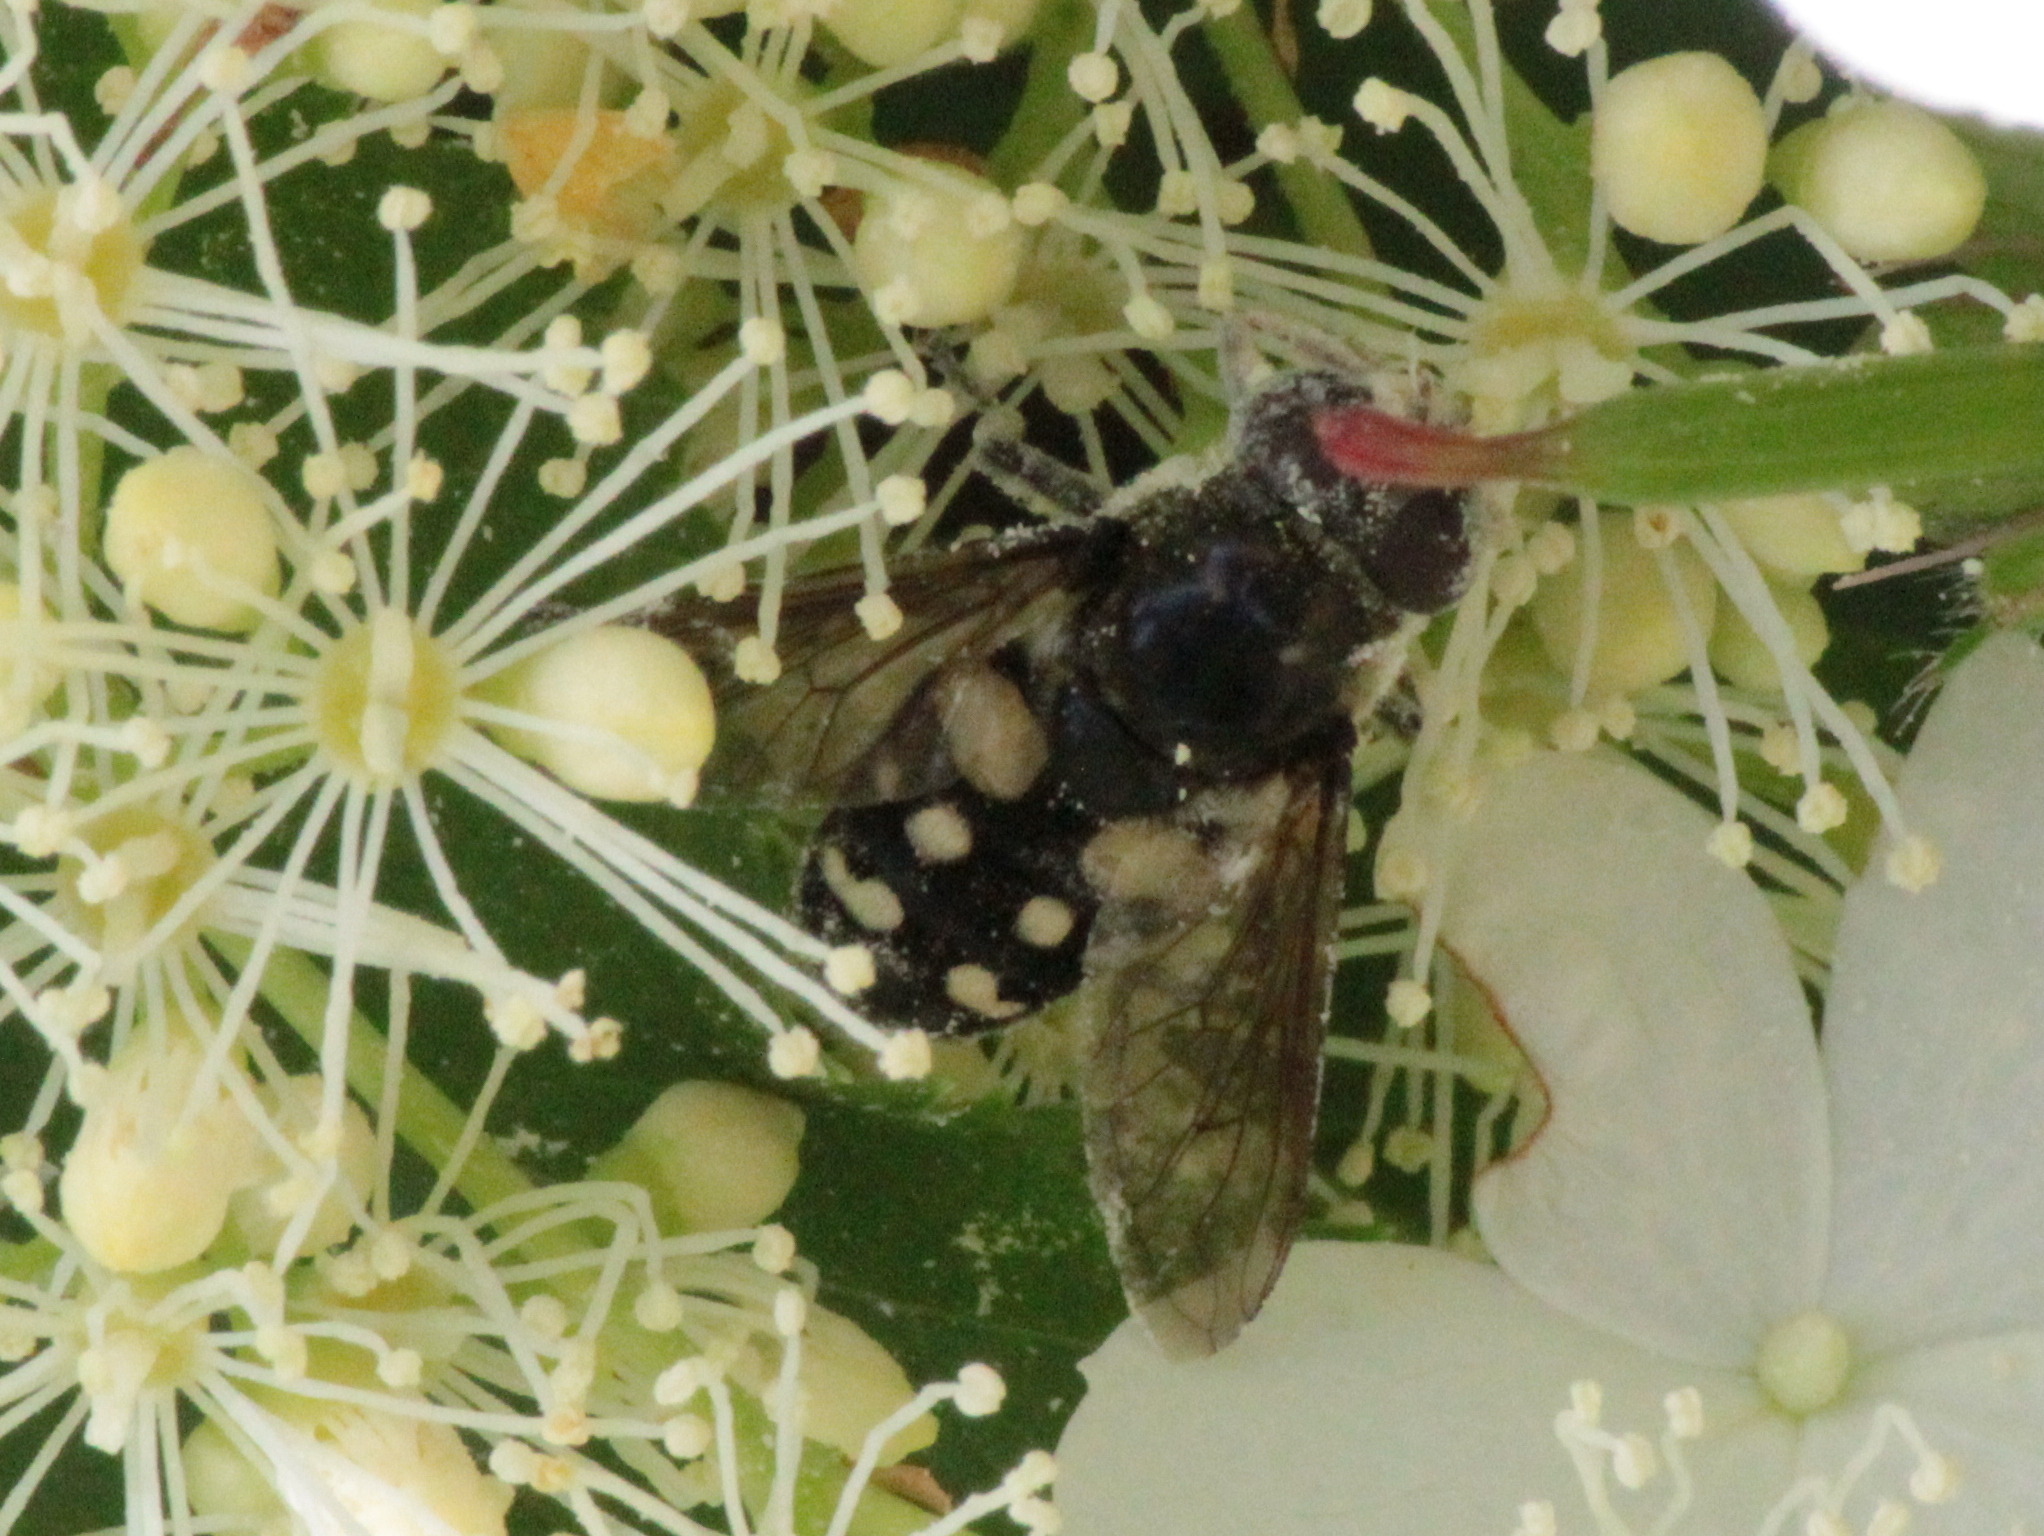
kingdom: Animalia
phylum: Arthropoda
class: Insecta
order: Diptera
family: Syrphidae
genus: Sericomyia
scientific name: Sericomyia lata
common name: White-spotted pond fly
